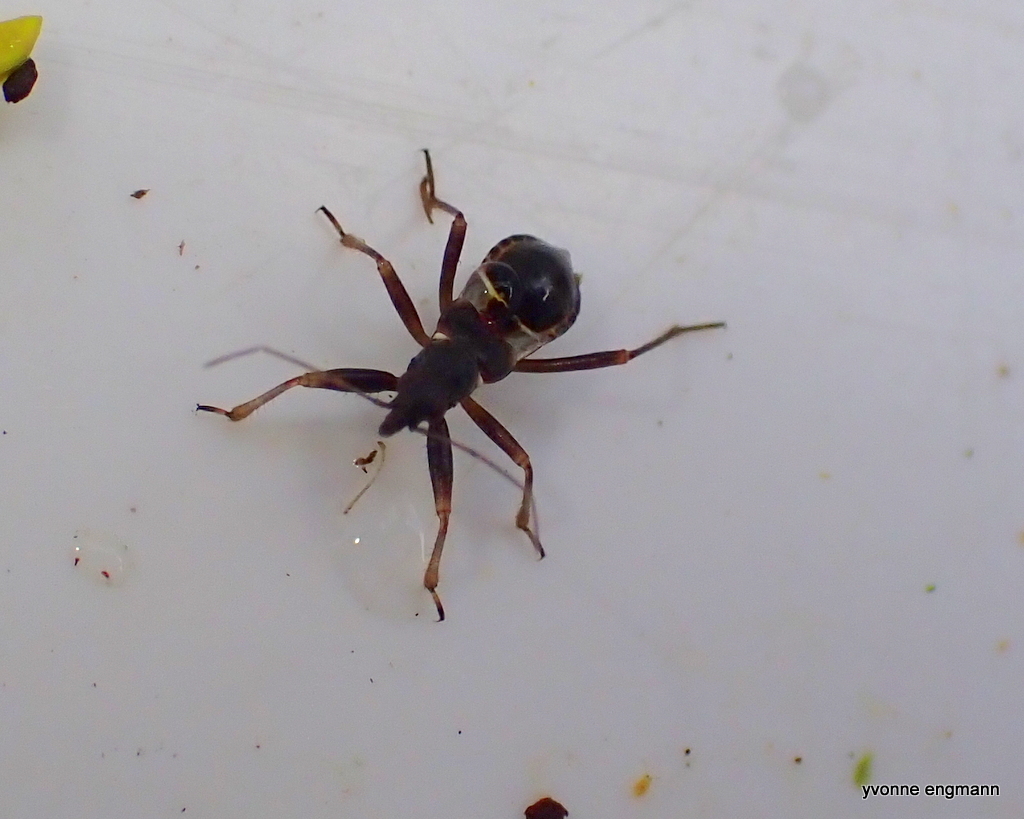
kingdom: Animalia
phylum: Arthropoda
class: Insecta
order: Hemiptera
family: Nabidae
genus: Himacerus
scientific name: Himacerus mirmicoides
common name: Ant damsel bug
